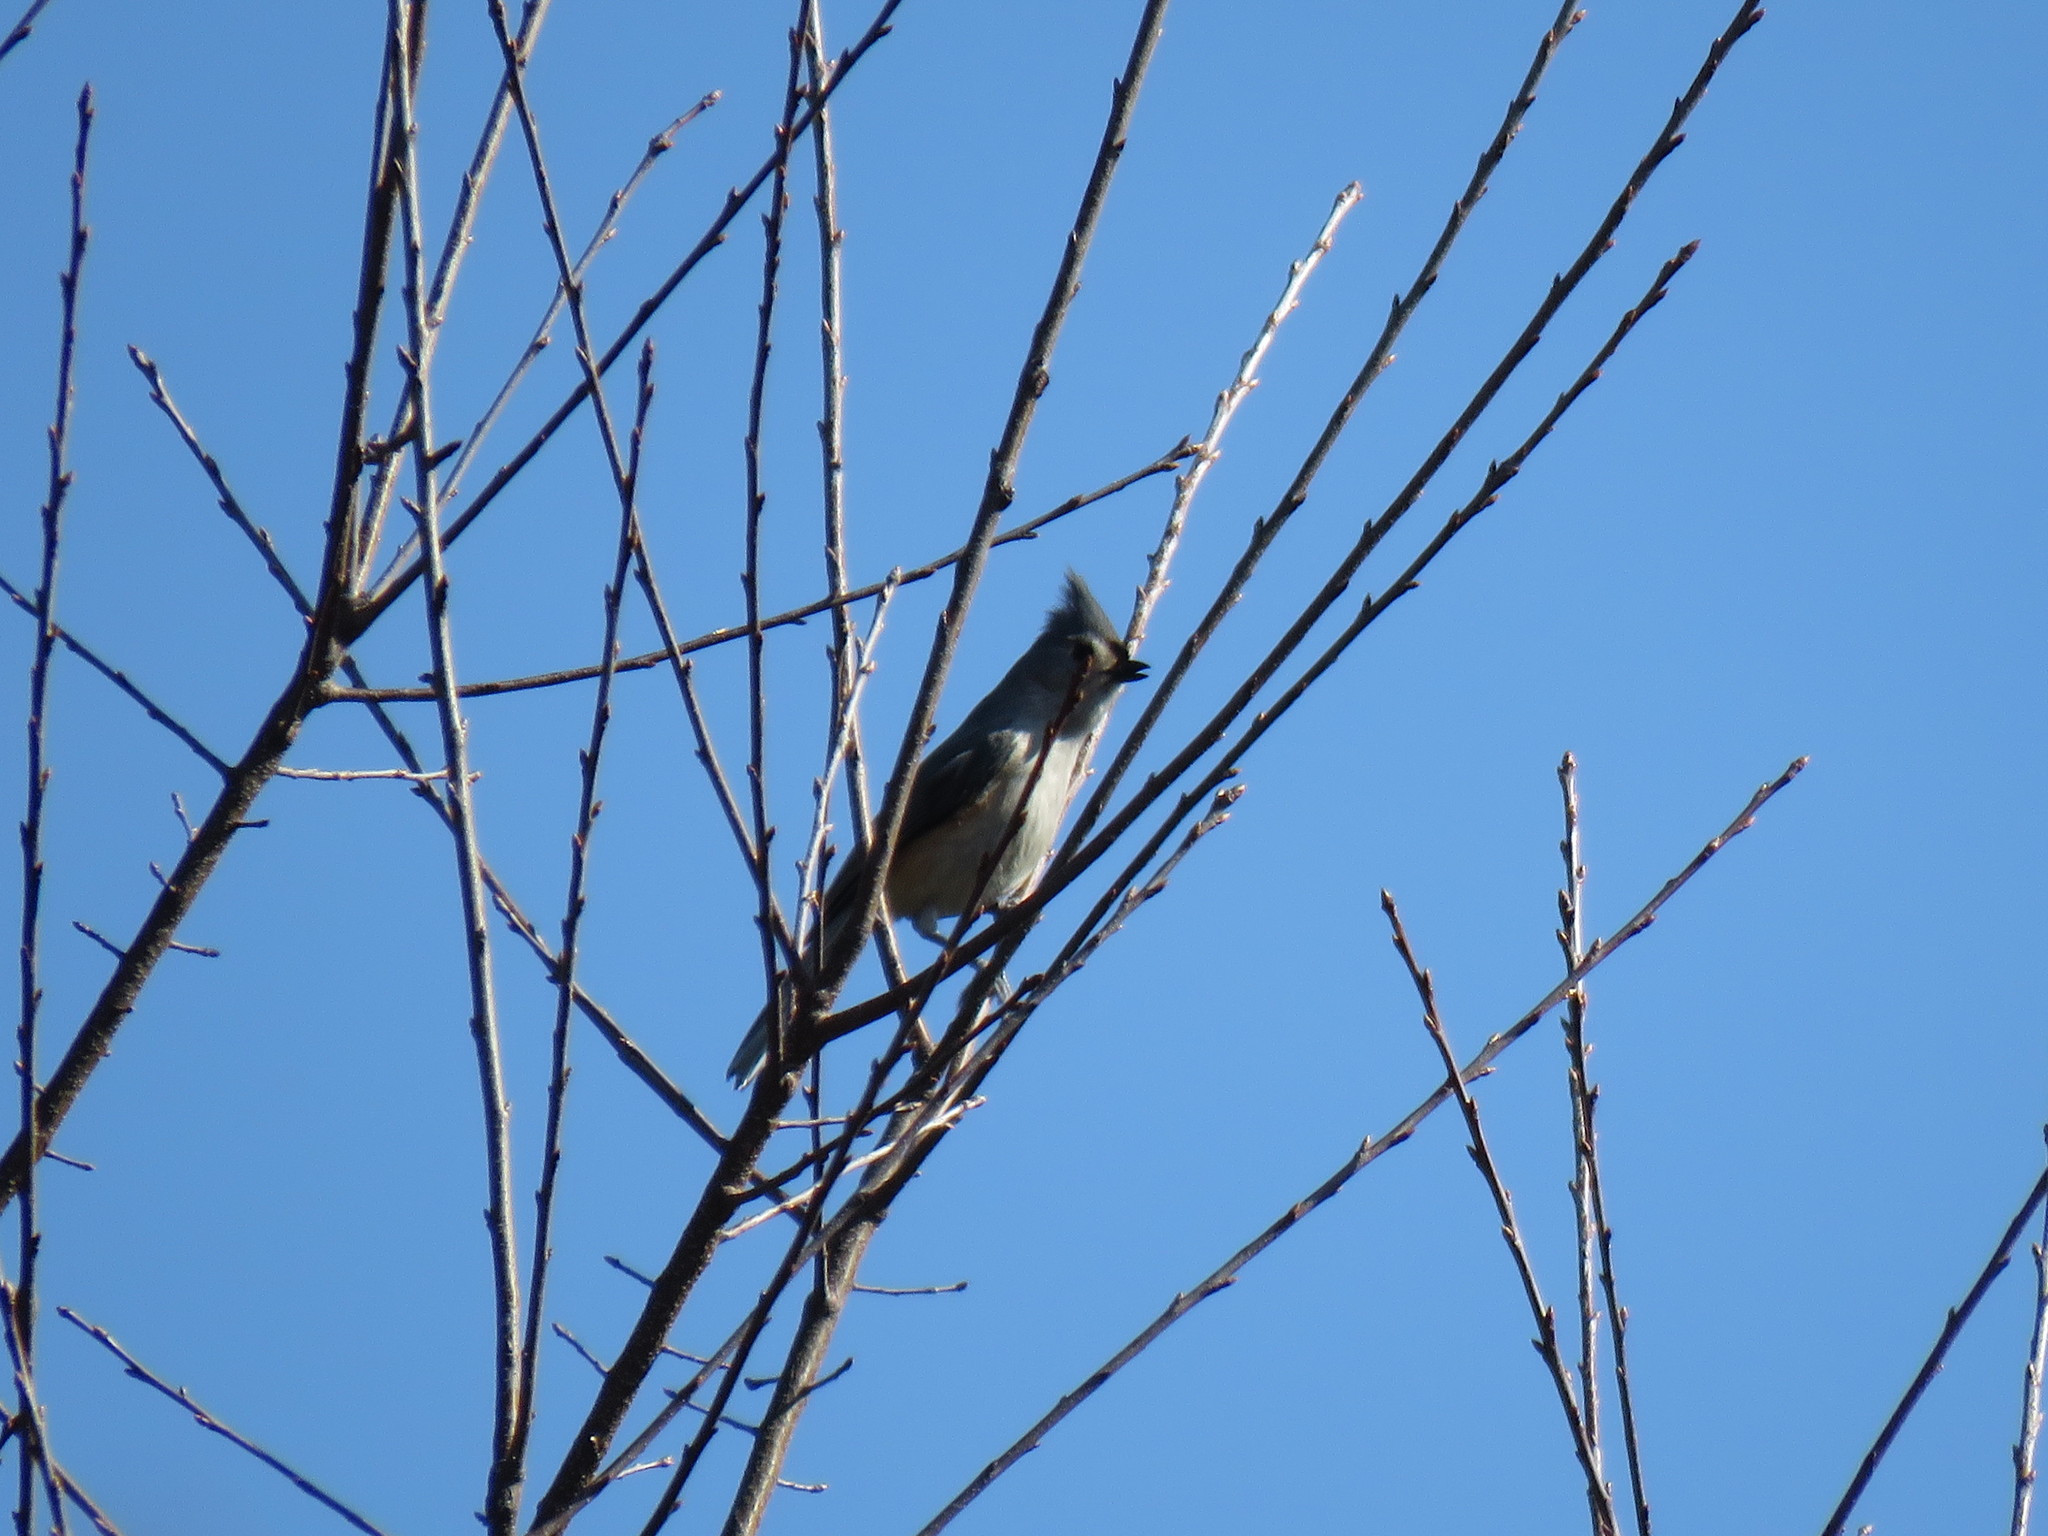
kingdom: Animalia
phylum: Chordata
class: Aves
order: Passeriformes
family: Paridae
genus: Baeolophus
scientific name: Baeolophus bicolor
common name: Tufted titmouse
